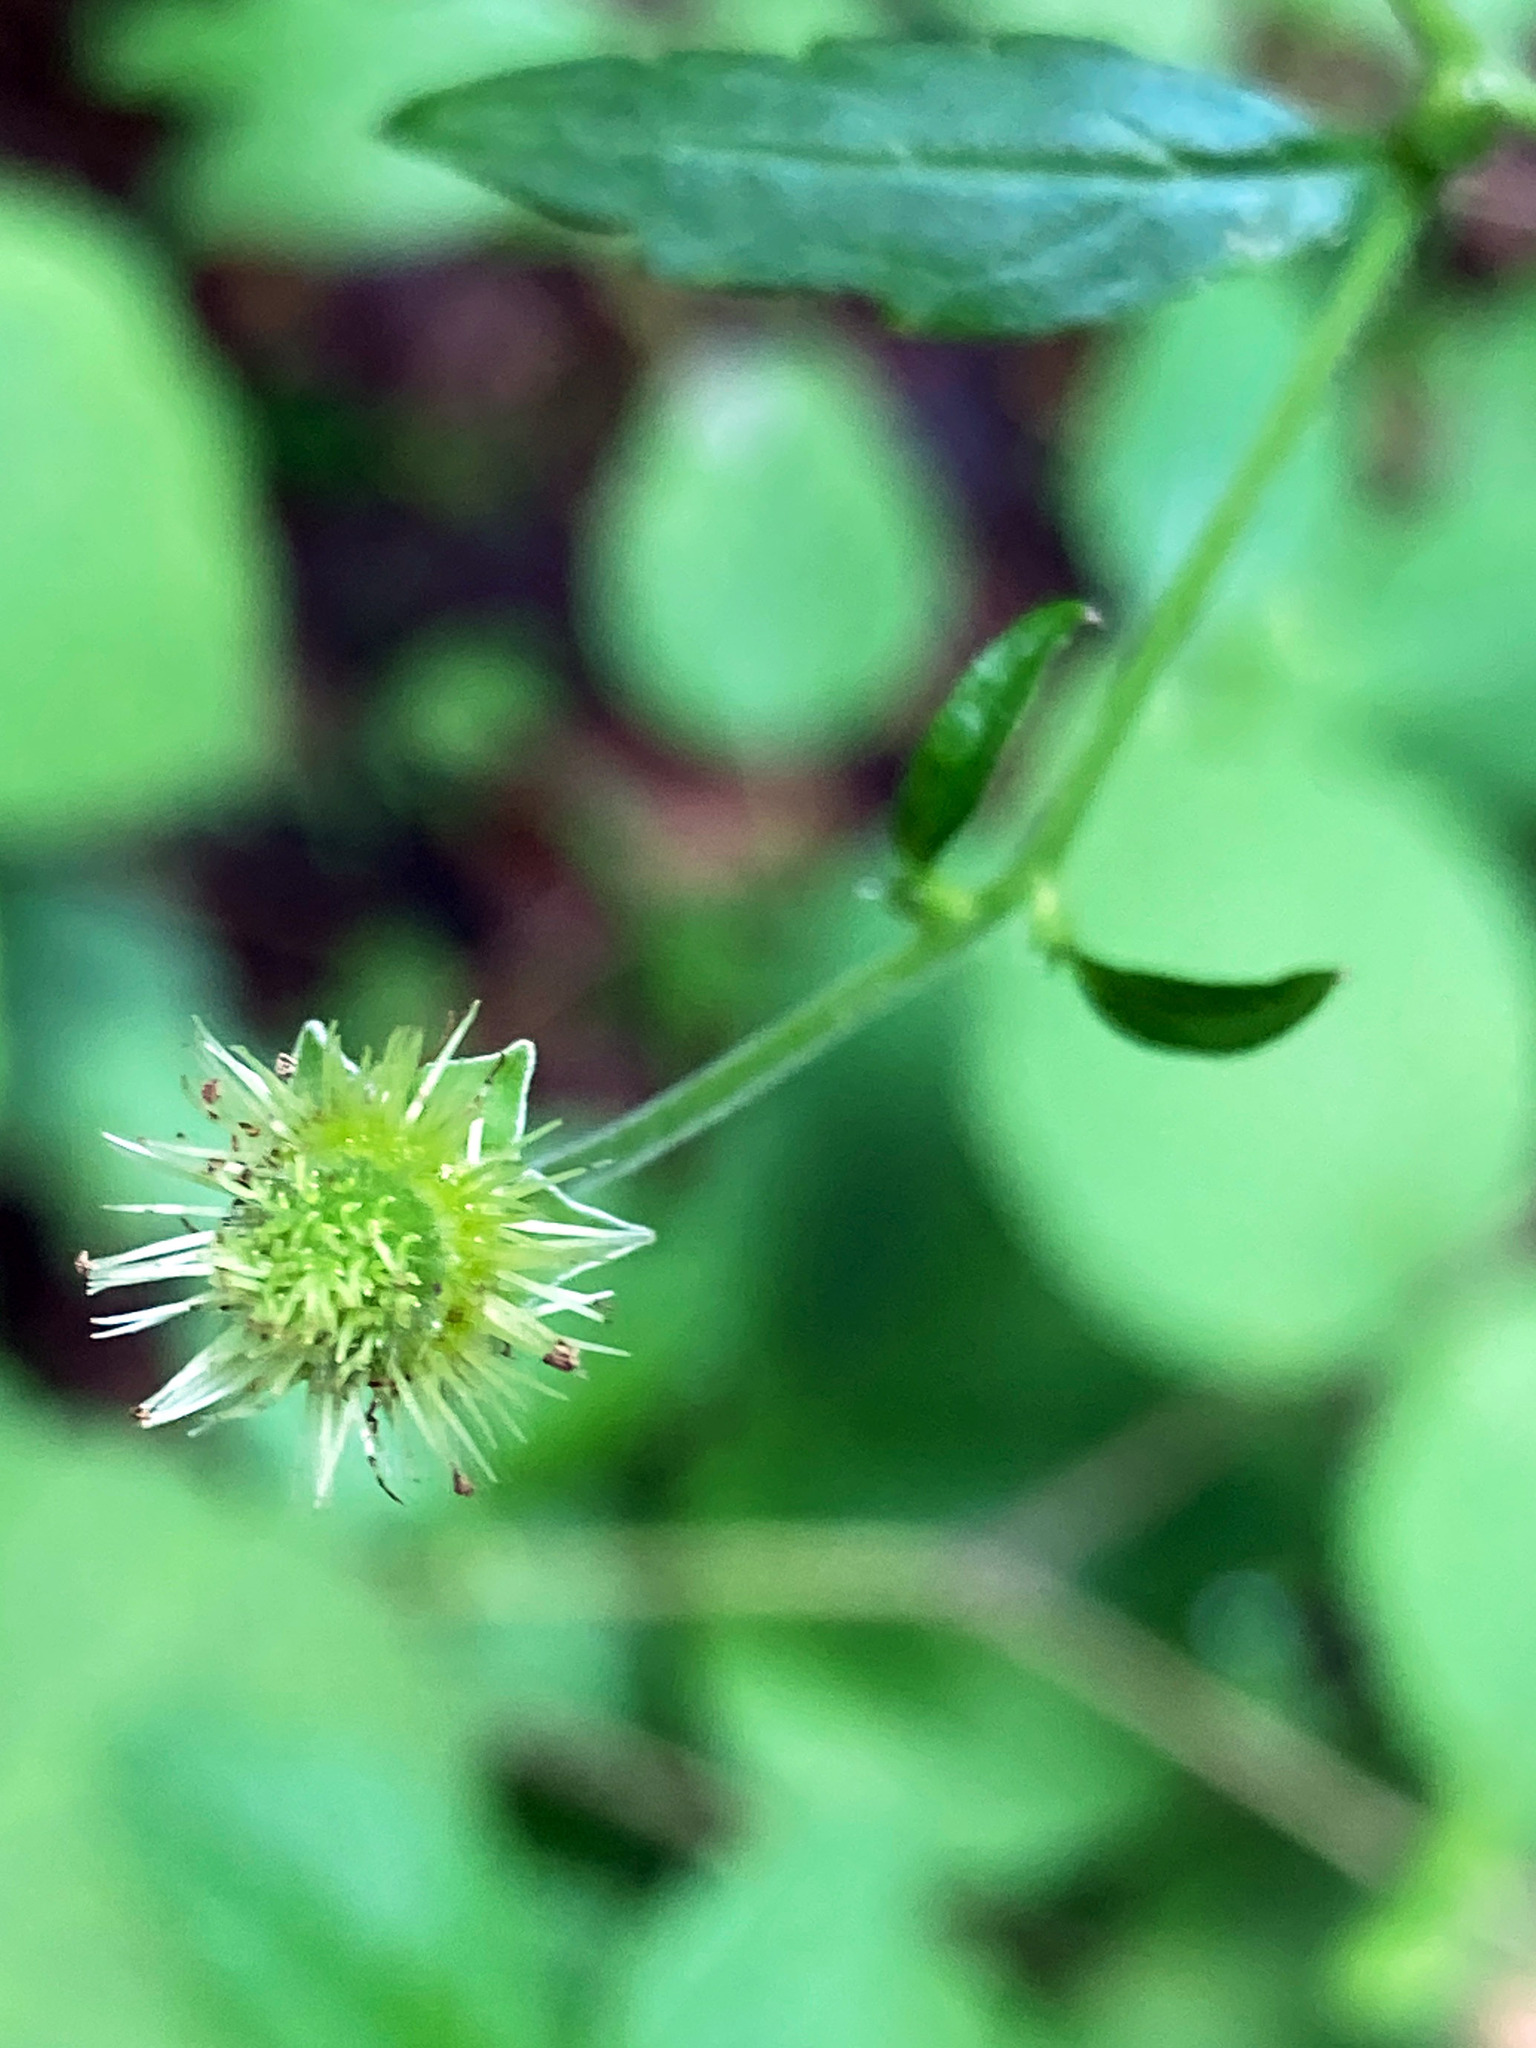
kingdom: Plantae
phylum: Tracheophyta
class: Magnoliopsida
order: Rosales
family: Rosaceae
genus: Geum
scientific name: Geum canadense
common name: White avens
